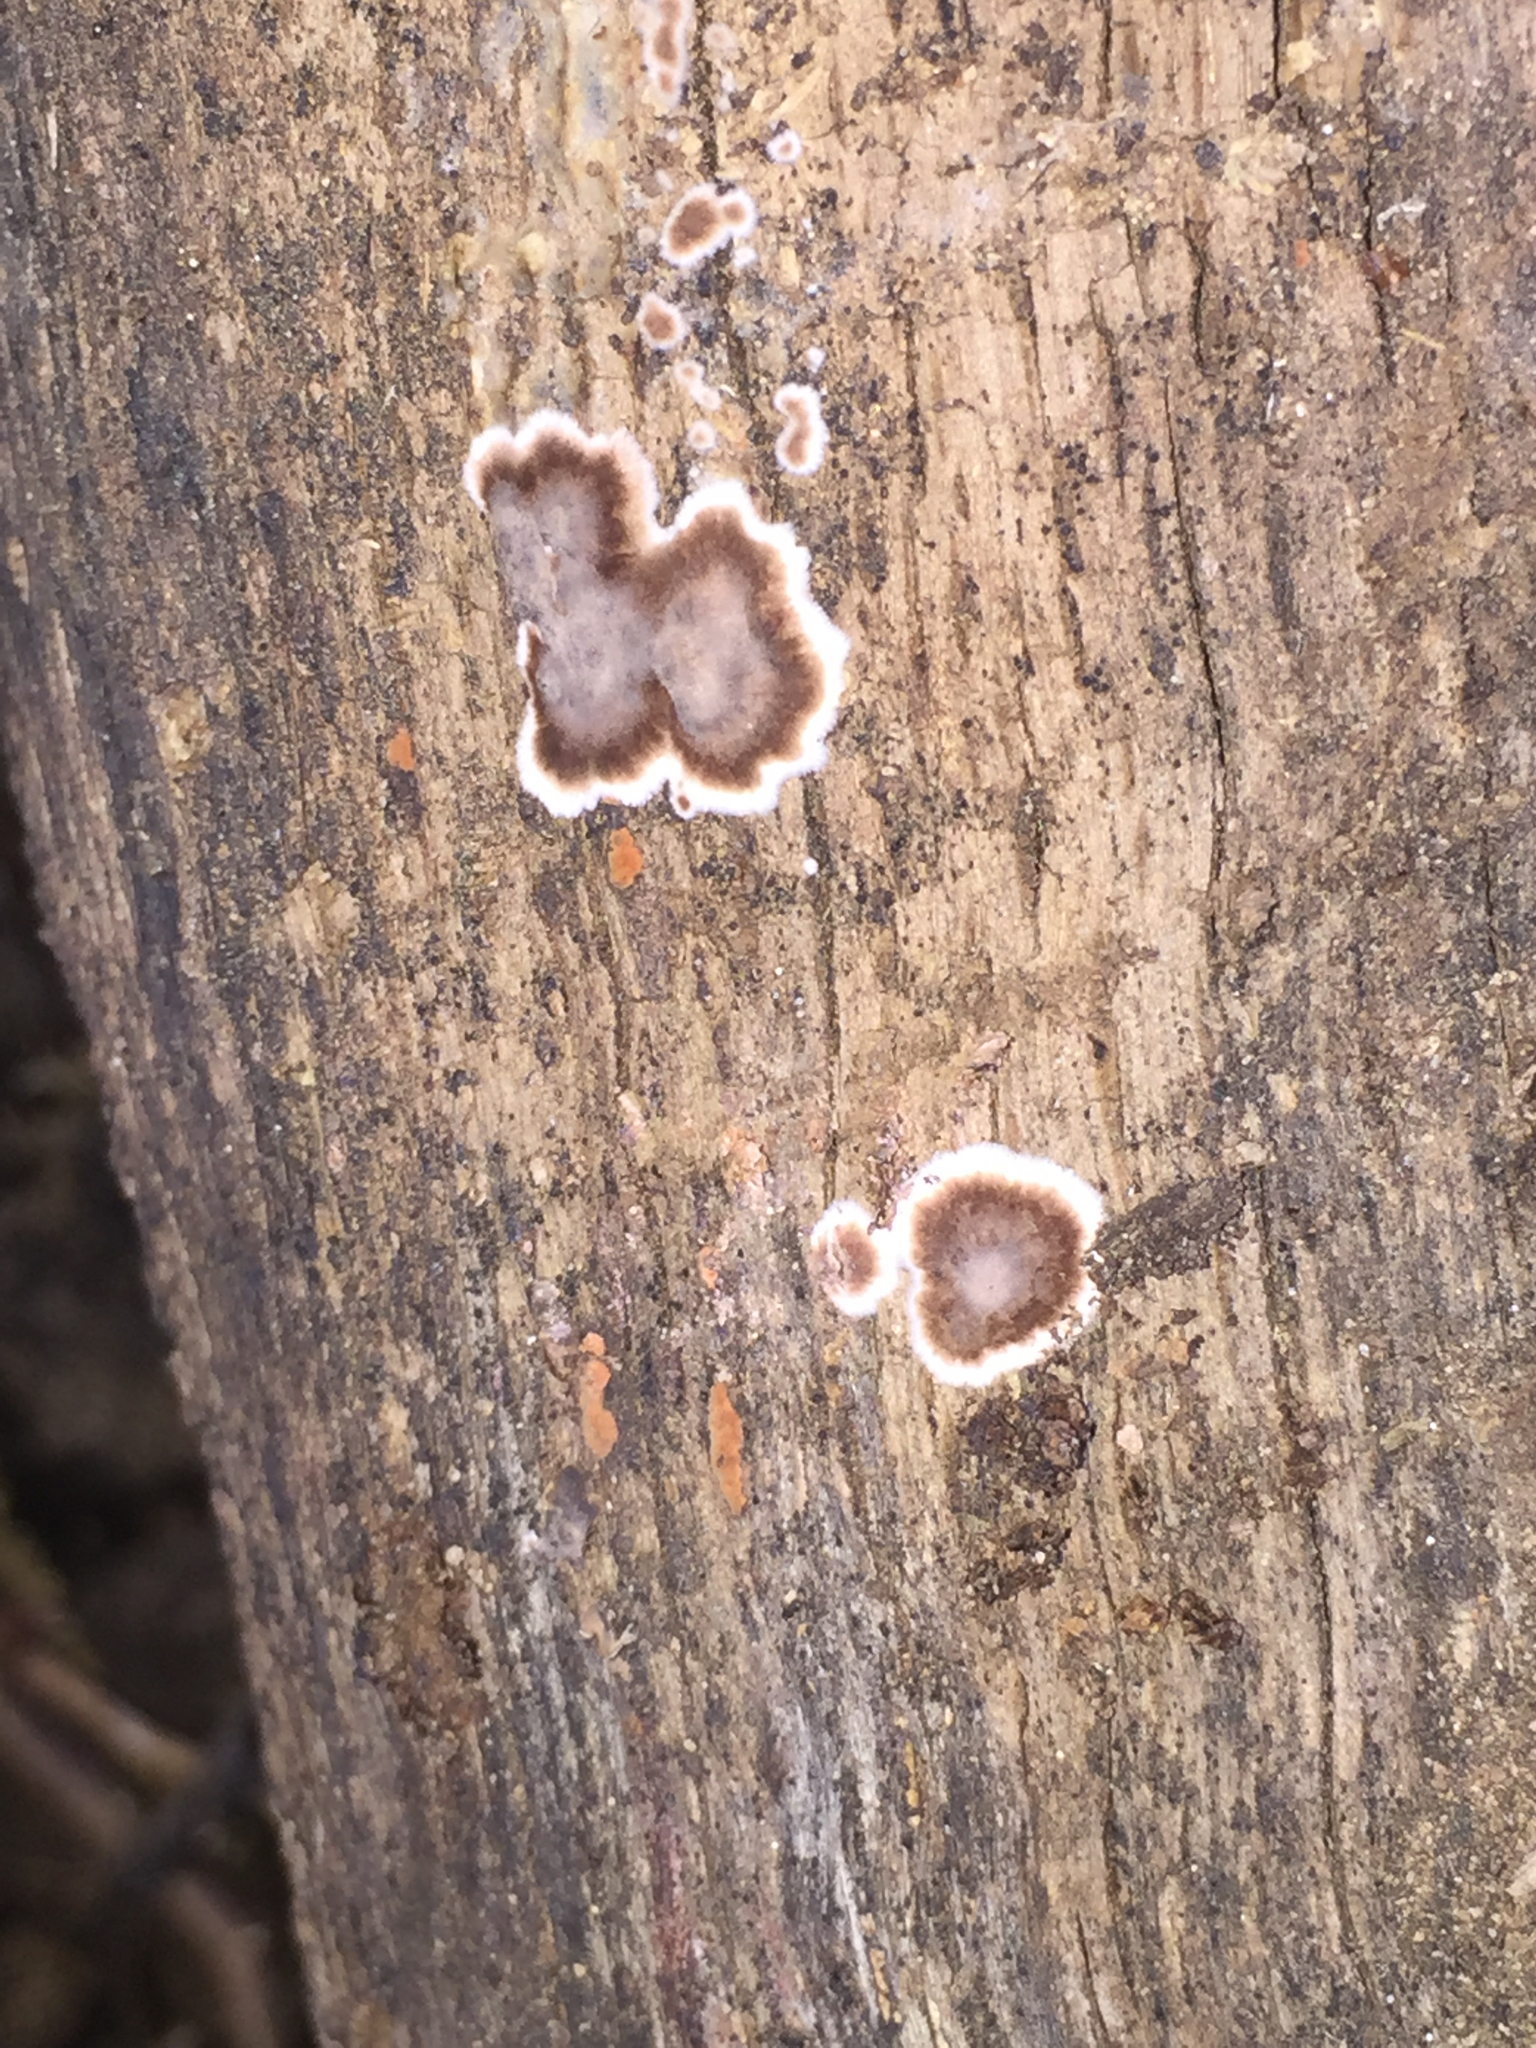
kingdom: Fungi
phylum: Basidiomycota
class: Agaricomycetes
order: Russulales
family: Peniophoraceae
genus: Peniophora
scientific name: Peniophora albobadia
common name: Giraffe spots
